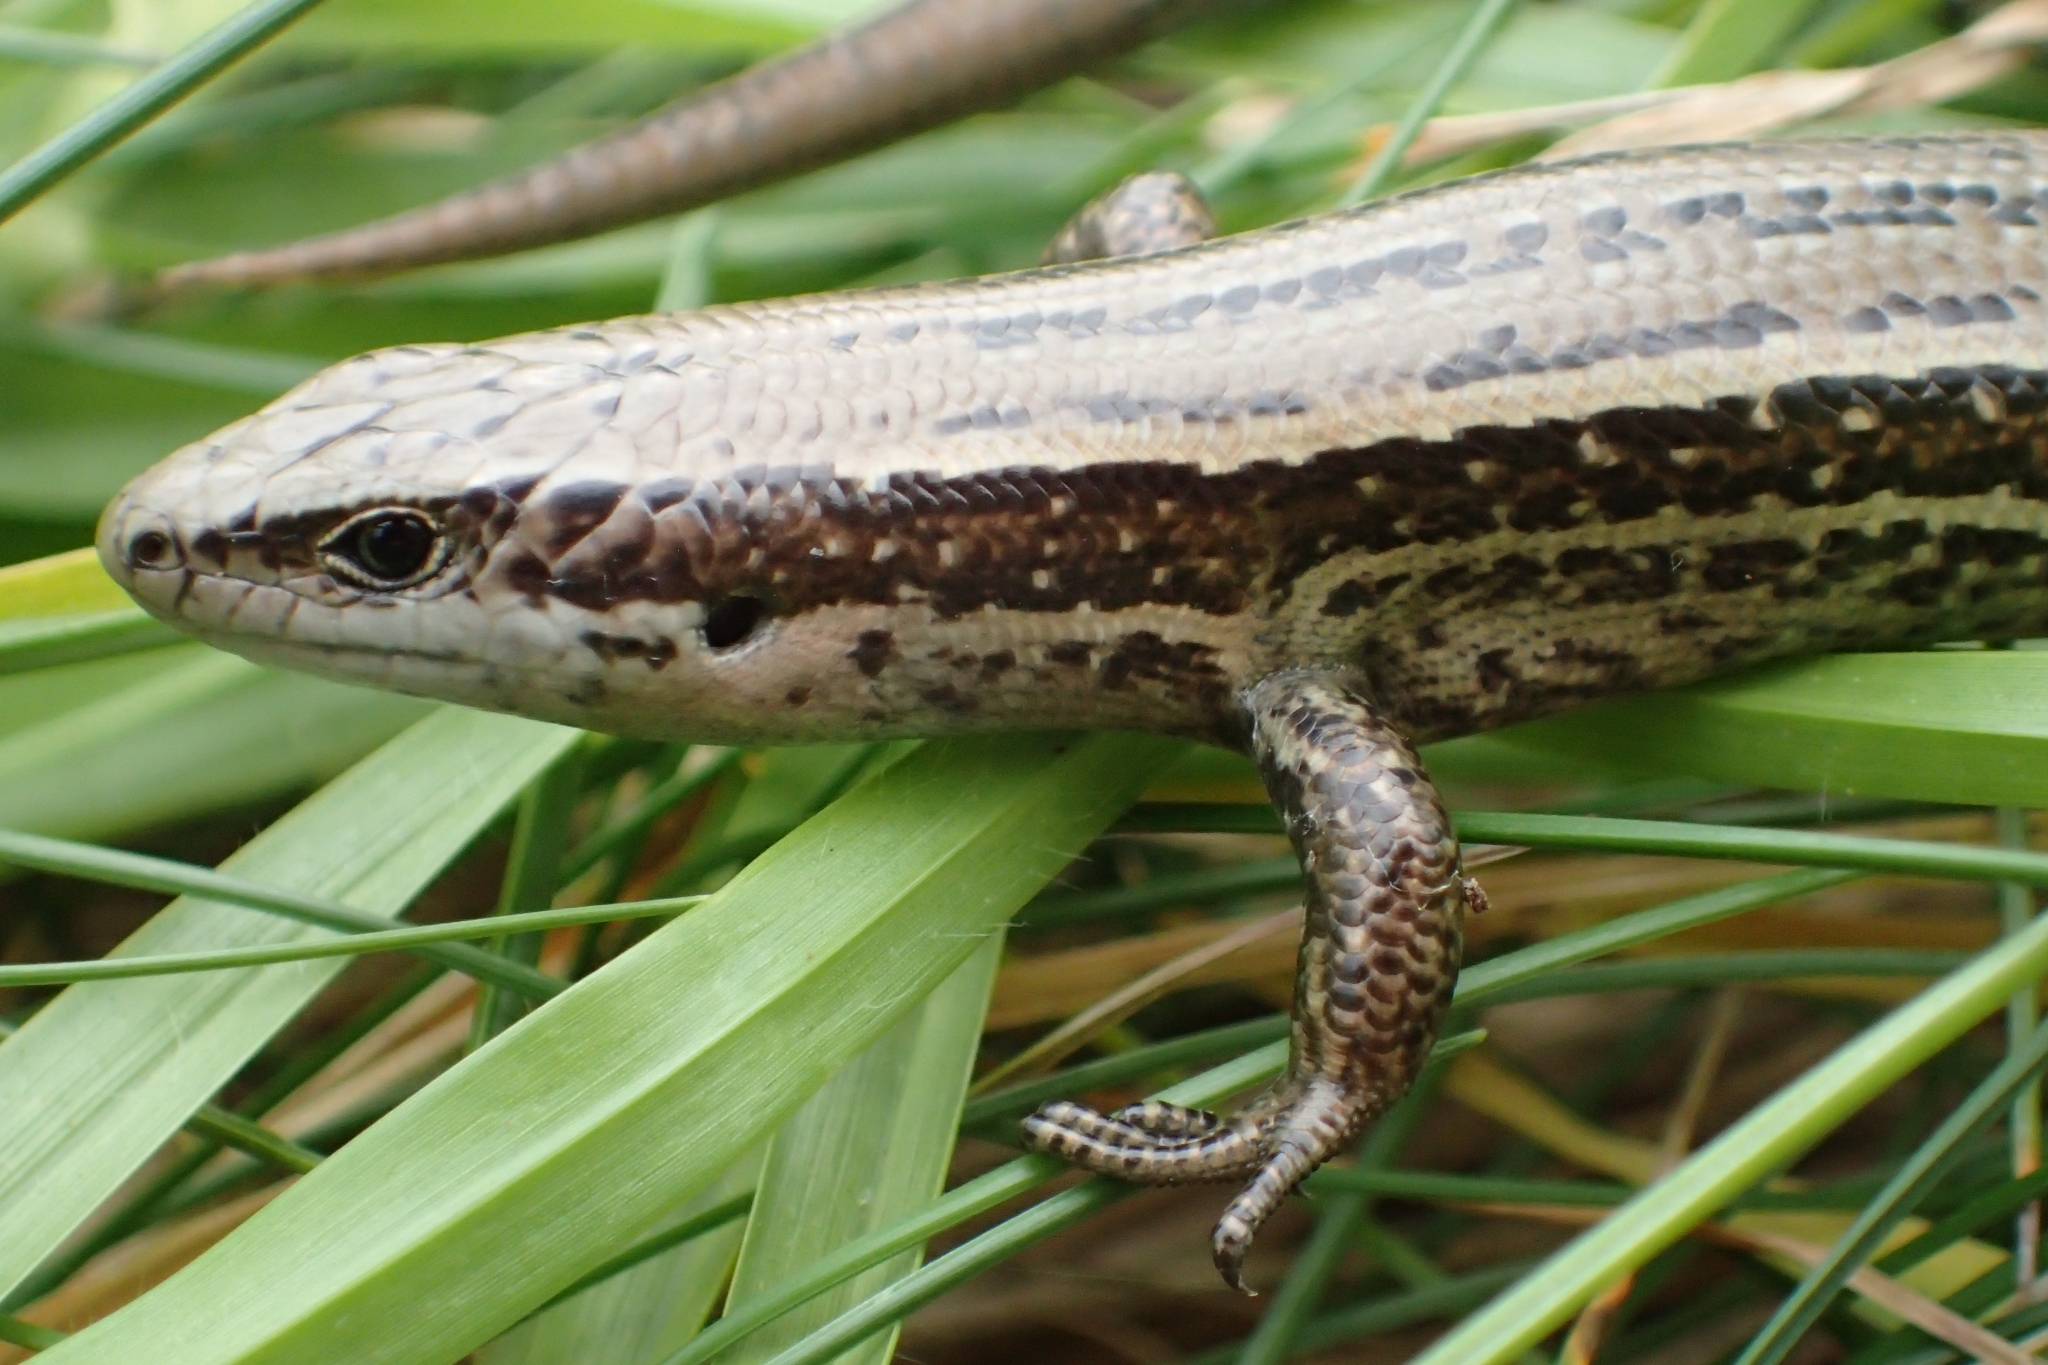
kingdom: Animalia
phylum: Chordata
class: Squamata
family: Scincidae
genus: Oligosoma
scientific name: Oligosoma infrapunctatum
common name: Speckled skink
